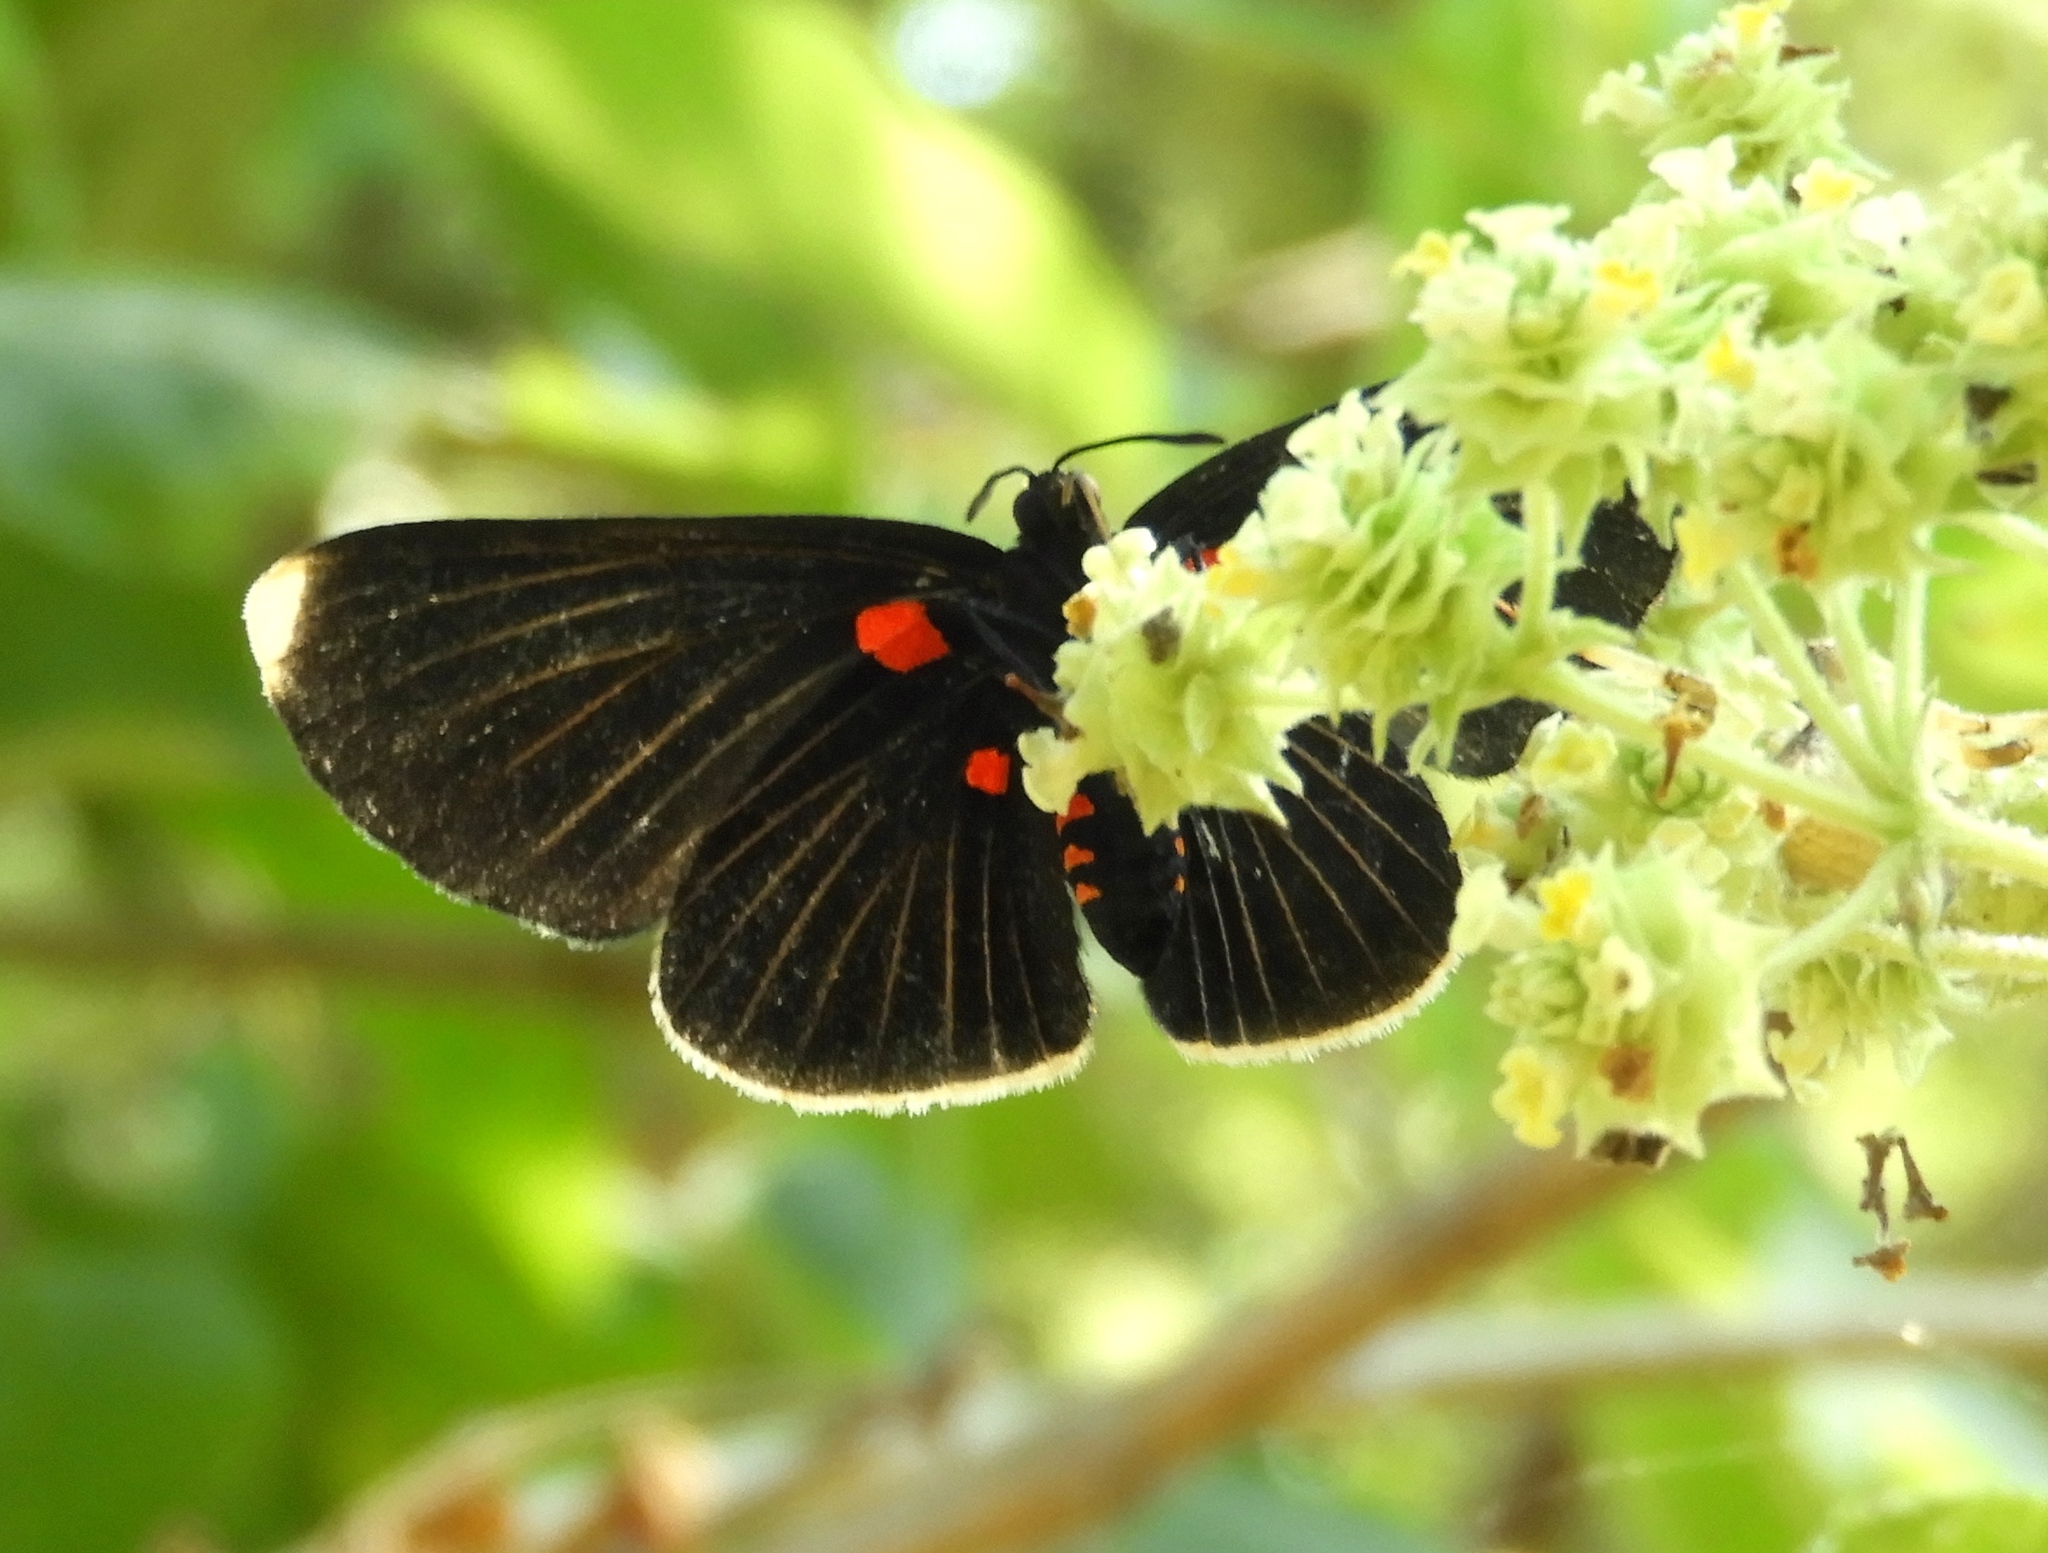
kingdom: Animalia
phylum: Arthropoda
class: Insecta
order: Lepidoptera
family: Lycaenidae
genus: Melanis
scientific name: Melanis
